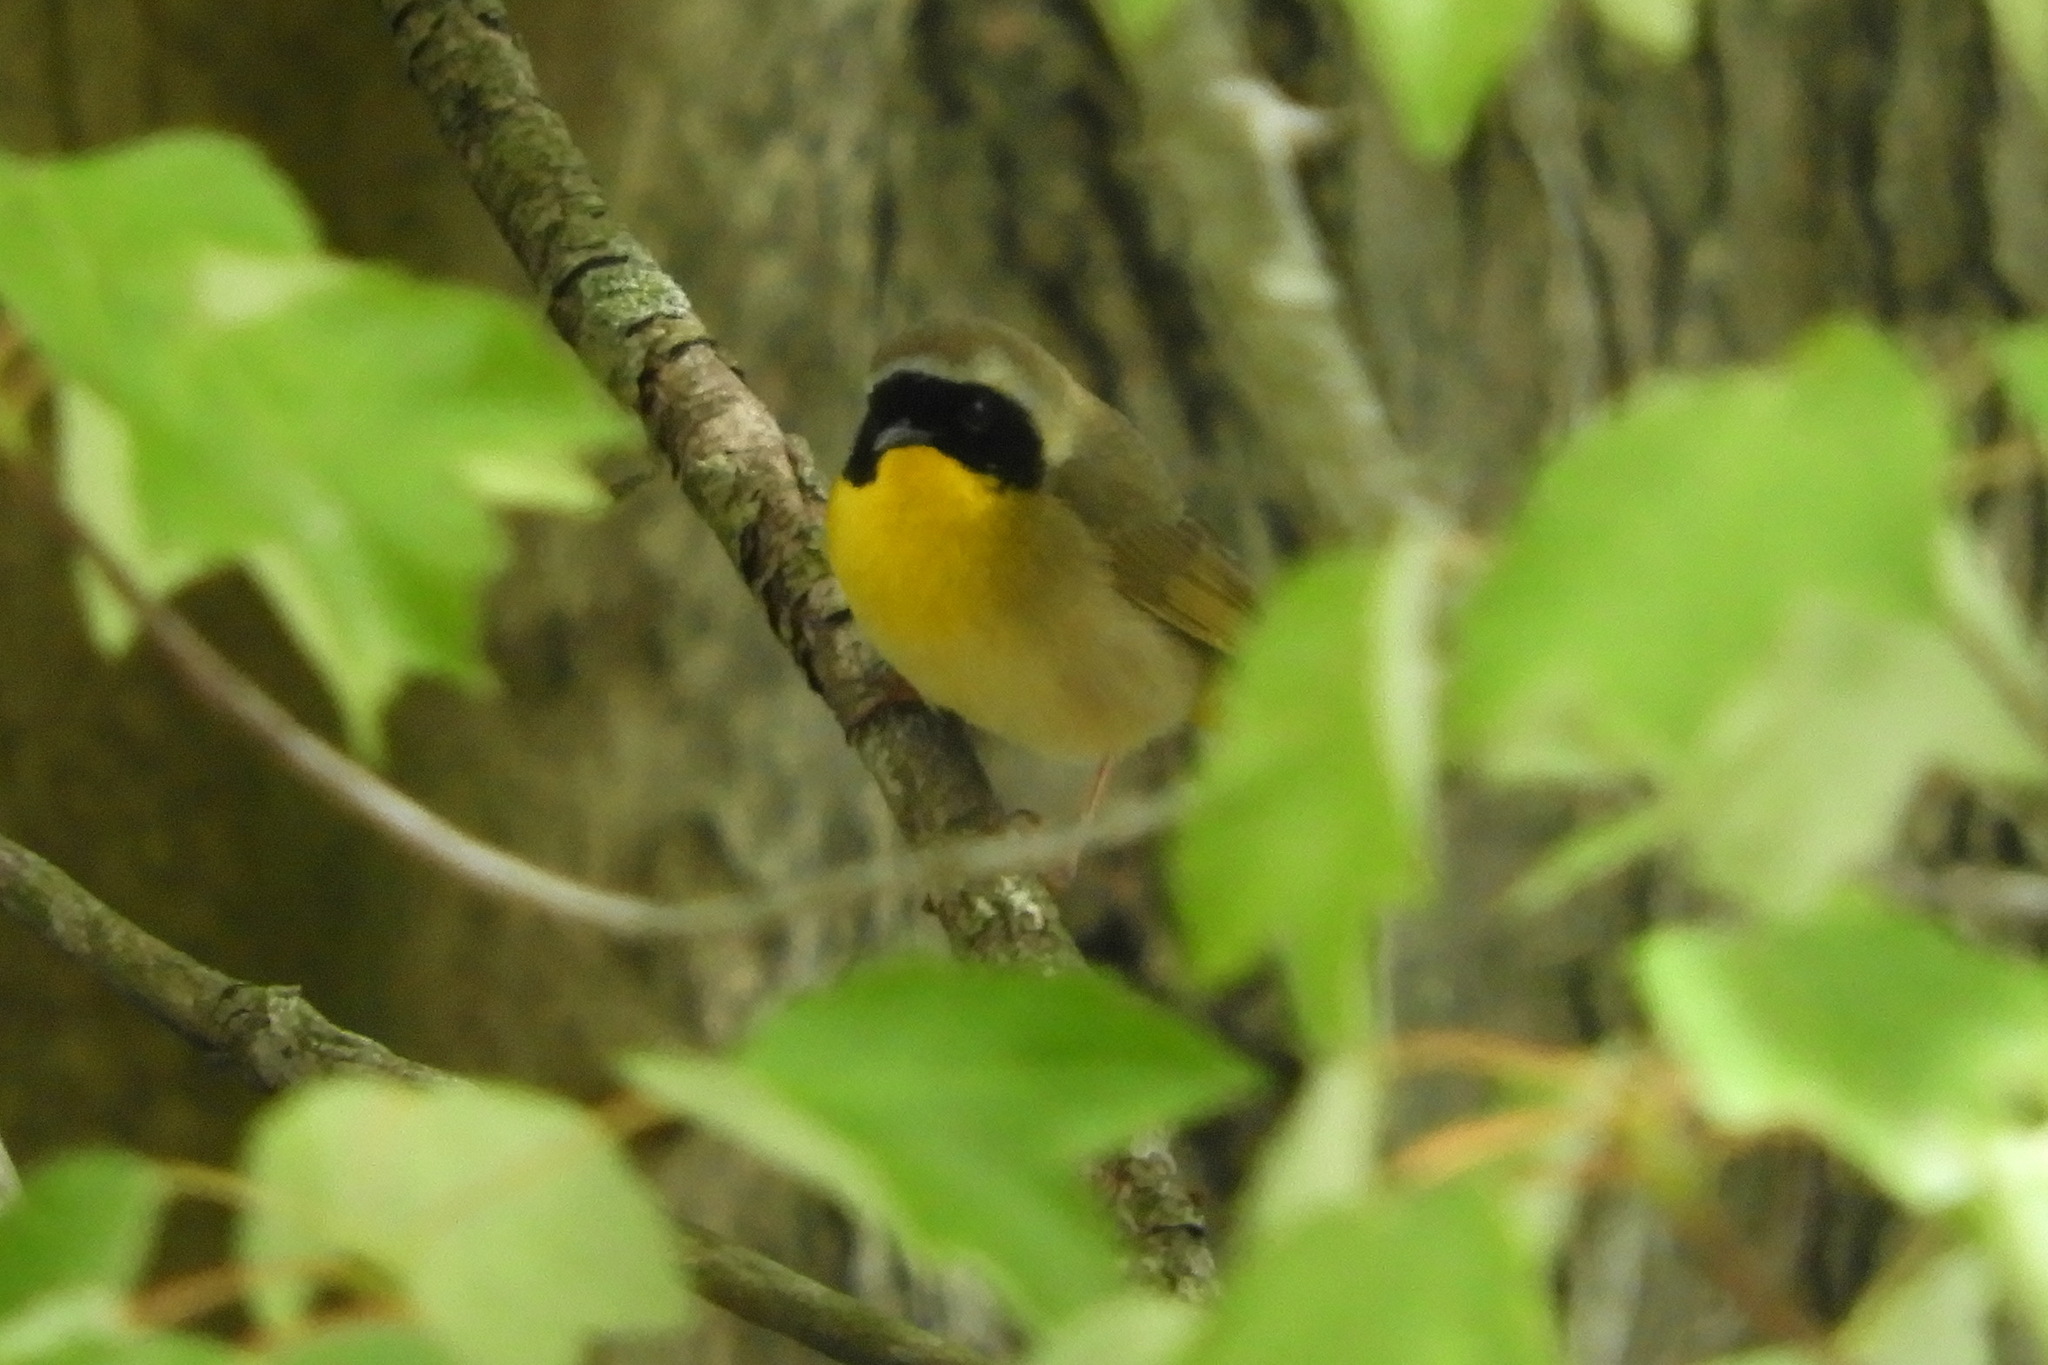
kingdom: Animalia
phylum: Chordata
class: Aves
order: Passeriformes
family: Parulidae
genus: Geothlypis
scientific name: Geothlypis trichas
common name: Common yellowthroat
